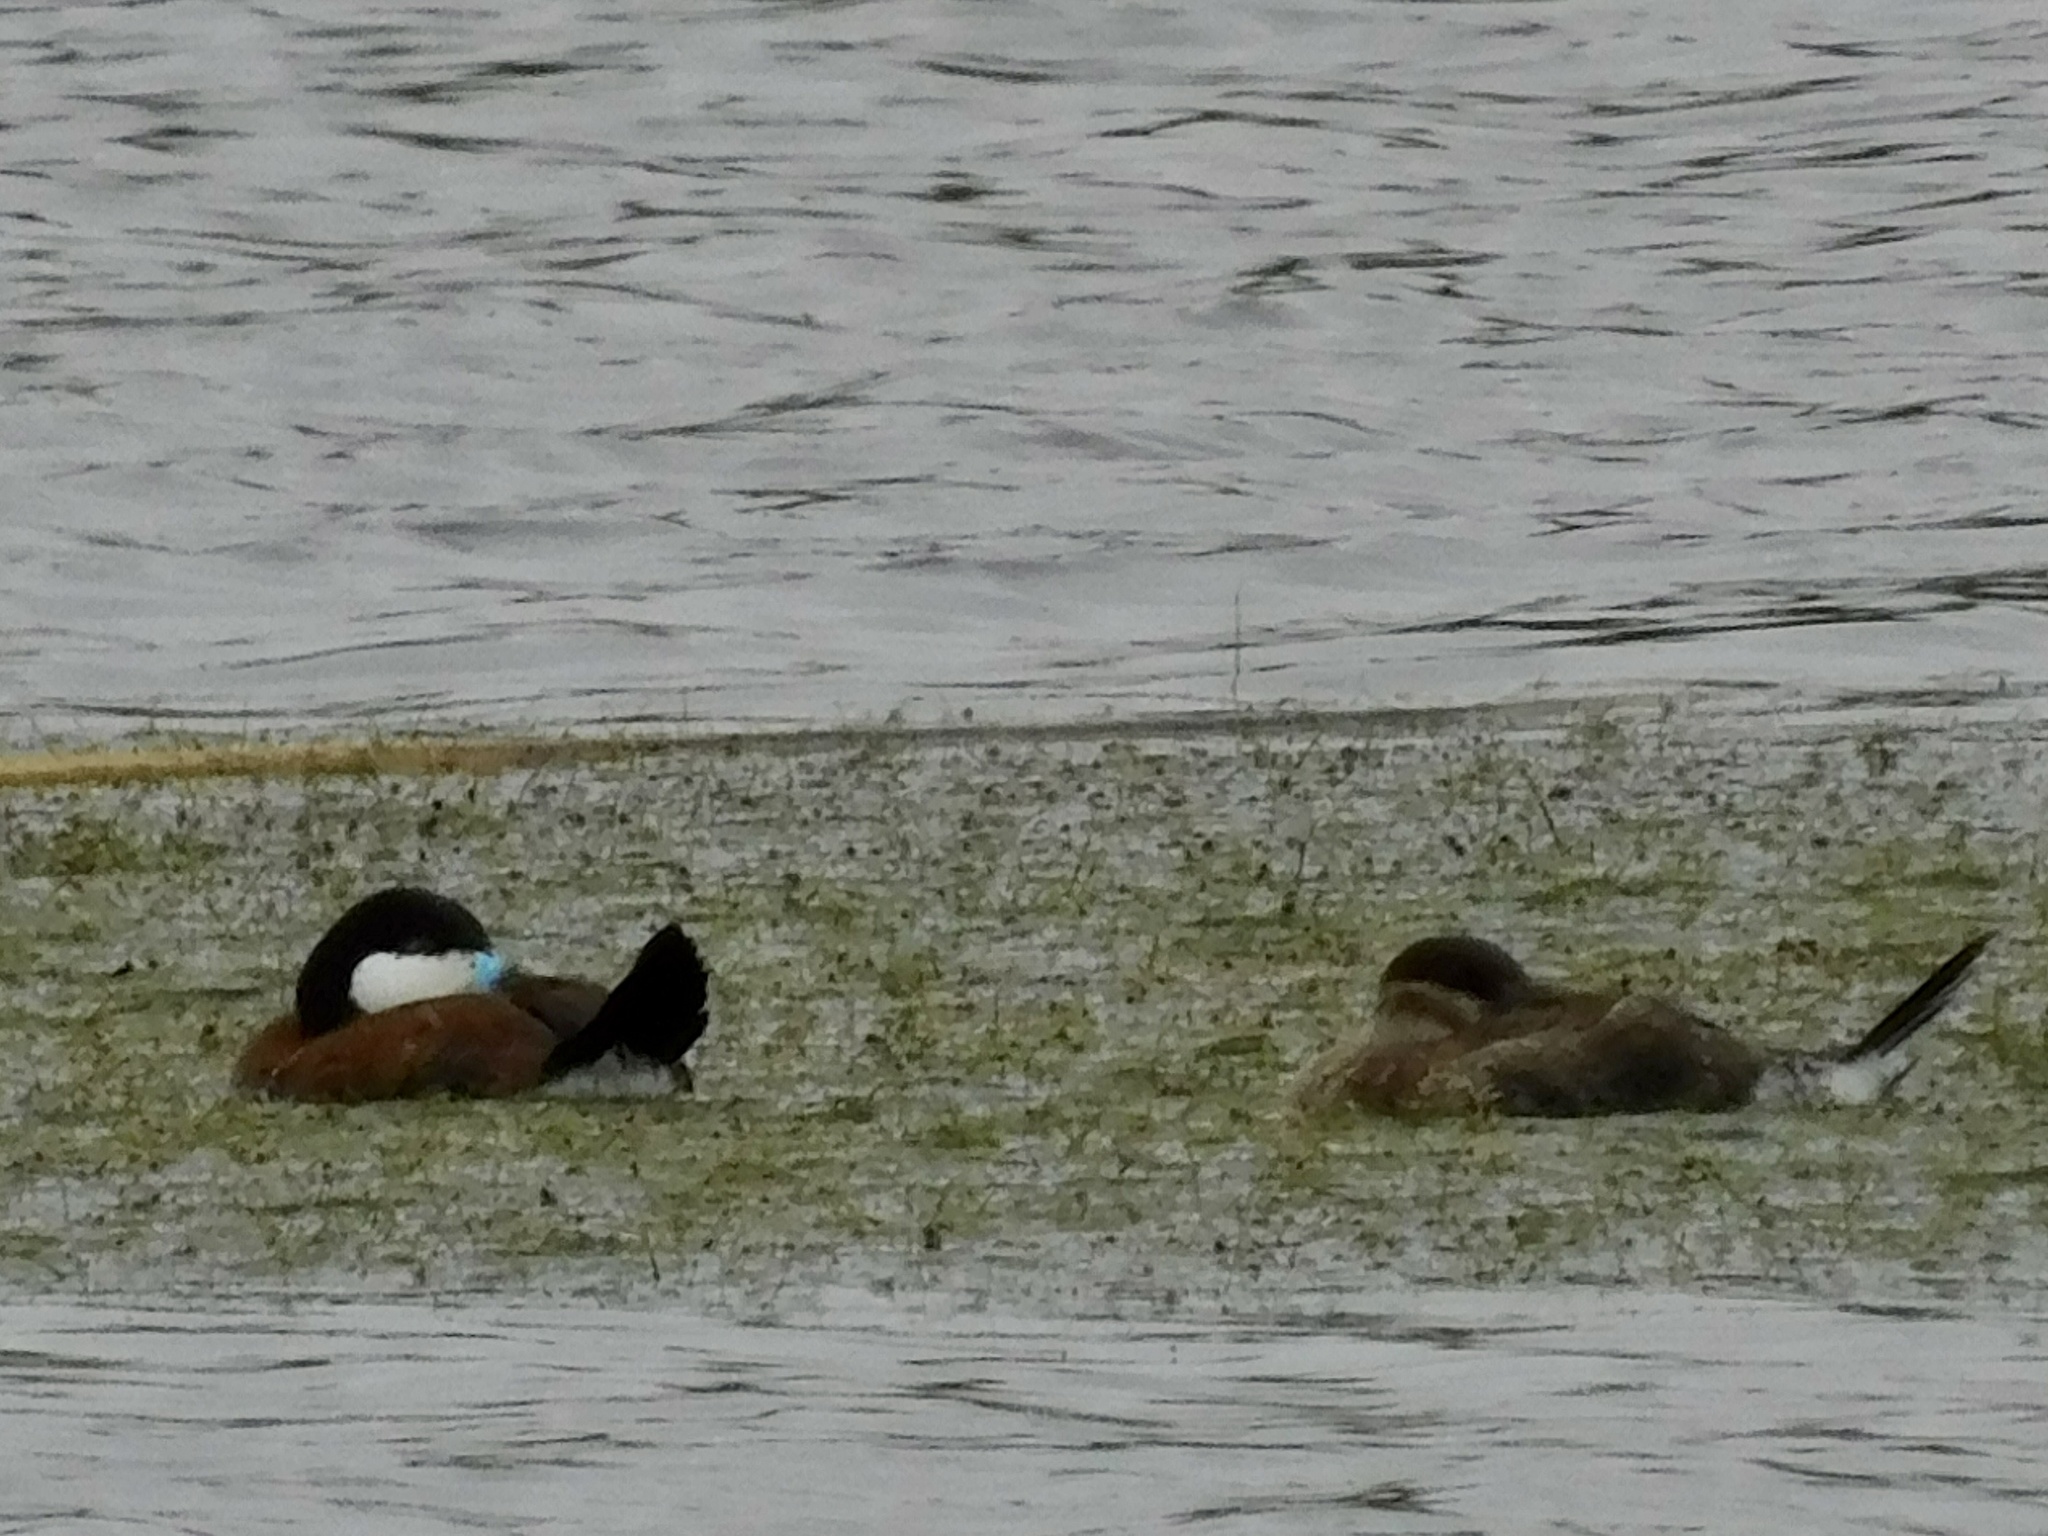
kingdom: Animalia
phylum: Chordata
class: Aves
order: Anseriformes
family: Anatidae
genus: Oxyura
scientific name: Oxyura jamaicensis
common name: Ruddy duck
